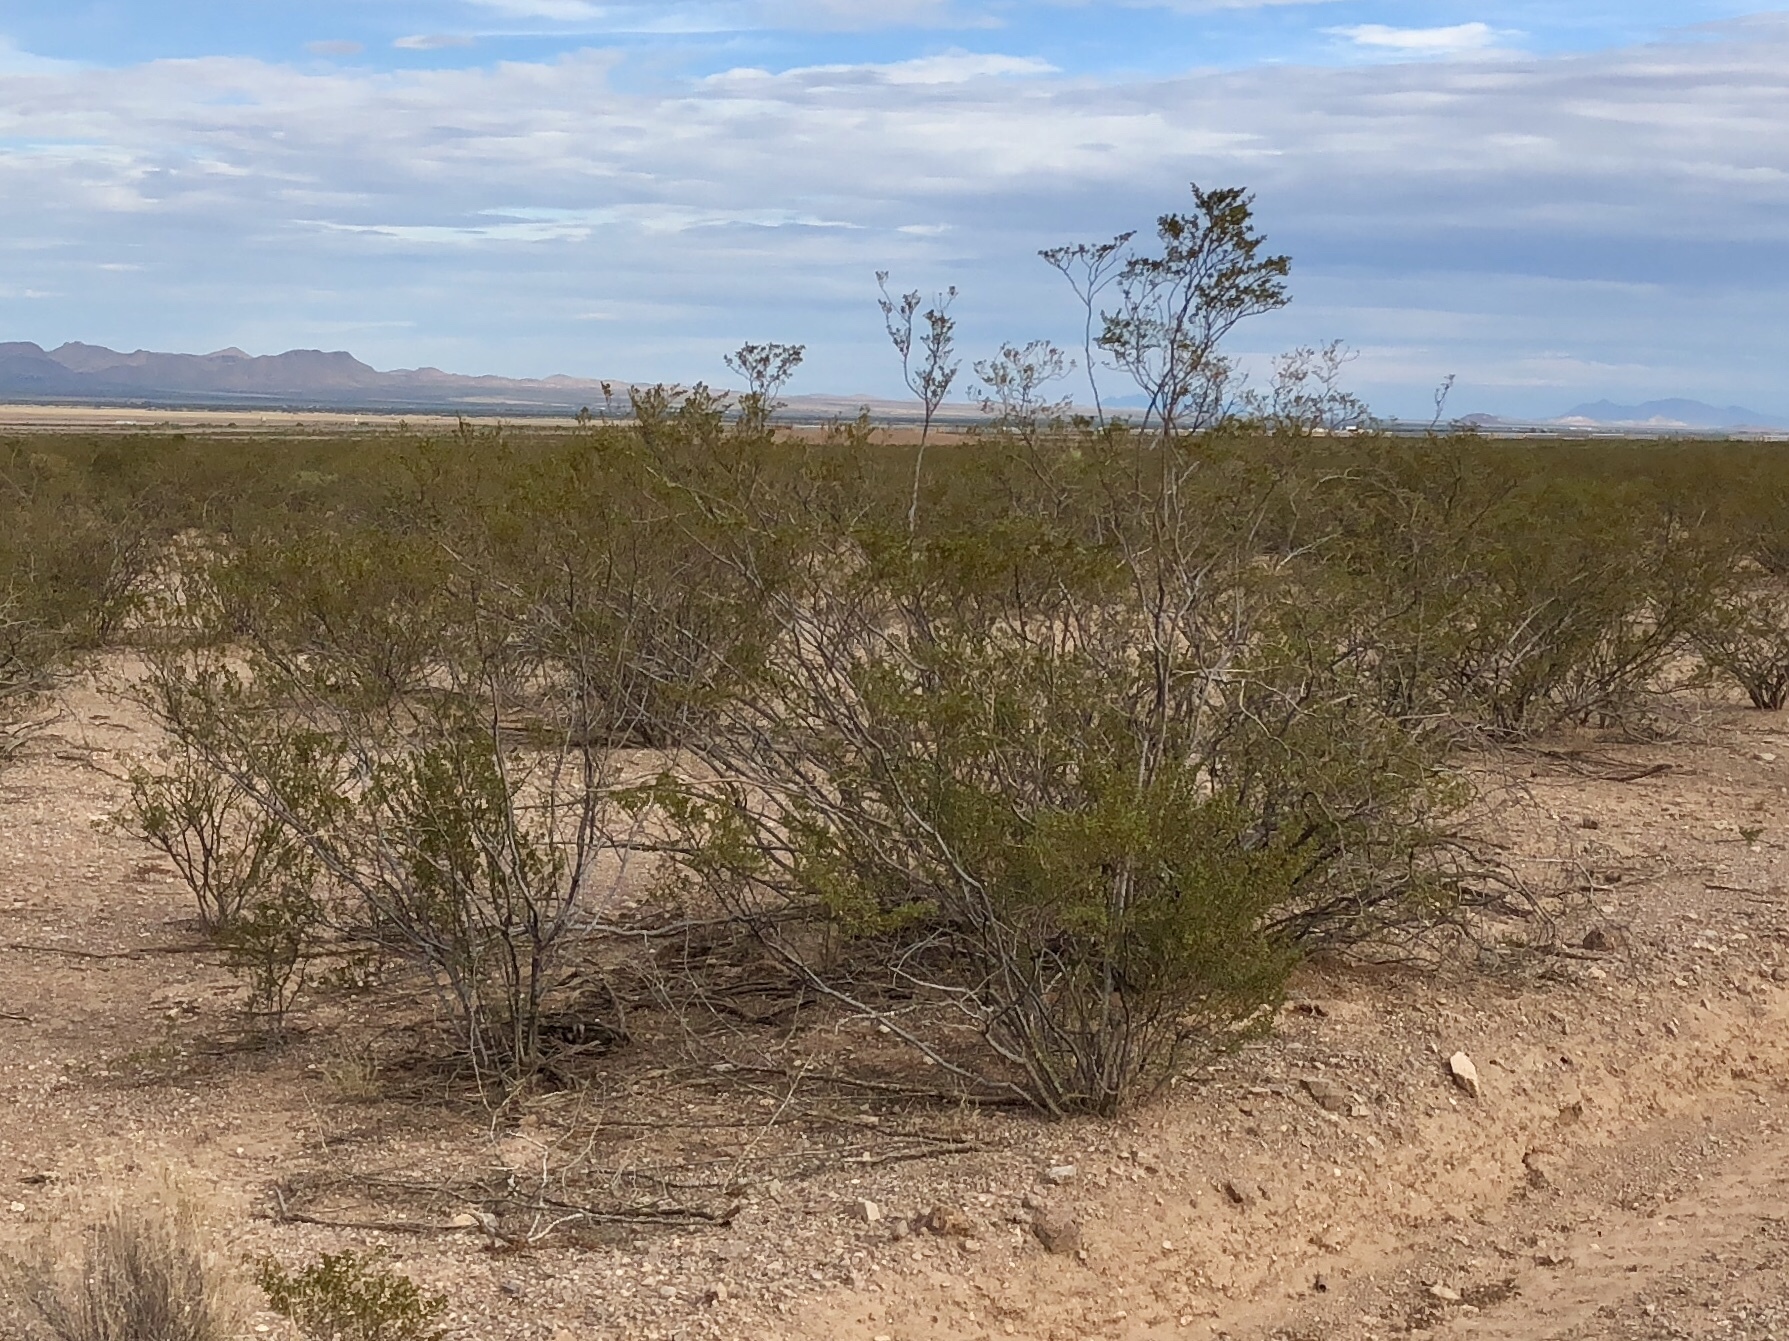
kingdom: Plantae
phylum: Tracheophyta
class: Magnoliopsida
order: Zygophyllales
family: Zygophyllaceae
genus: Larrea
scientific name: Larrea tridentata
